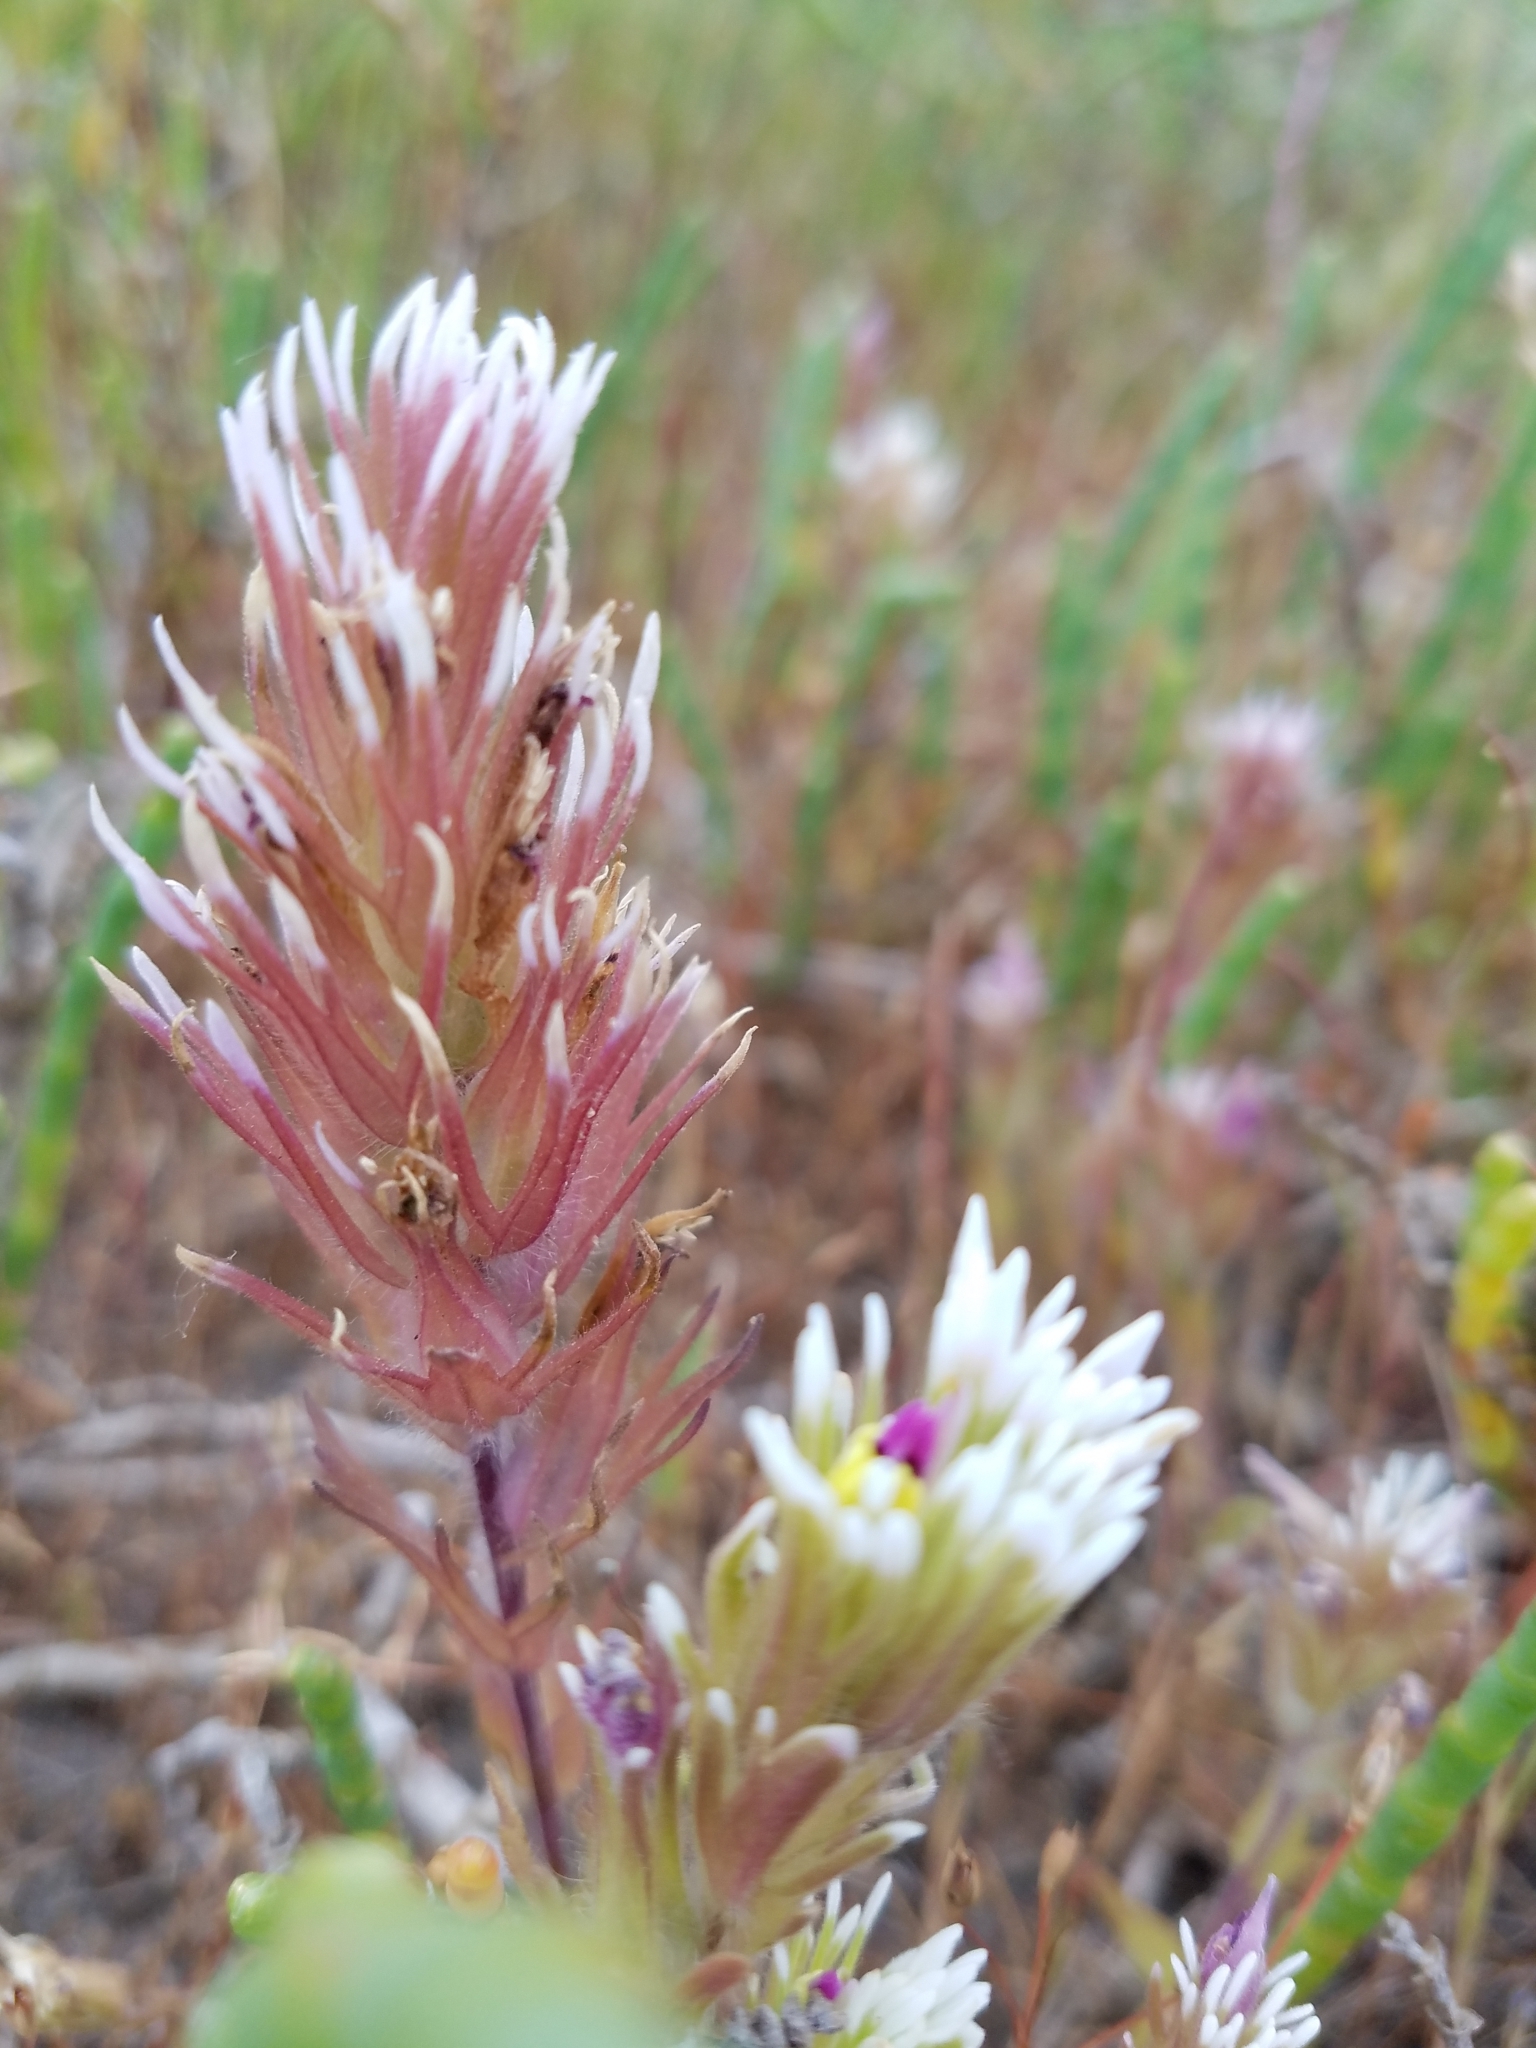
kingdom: Plantae
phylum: Tracheophyta
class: Magnoliopsida
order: Lamiales
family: Orobanchaceae
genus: Castilleja
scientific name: Castilleja ambigua
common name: Johnny-nip
